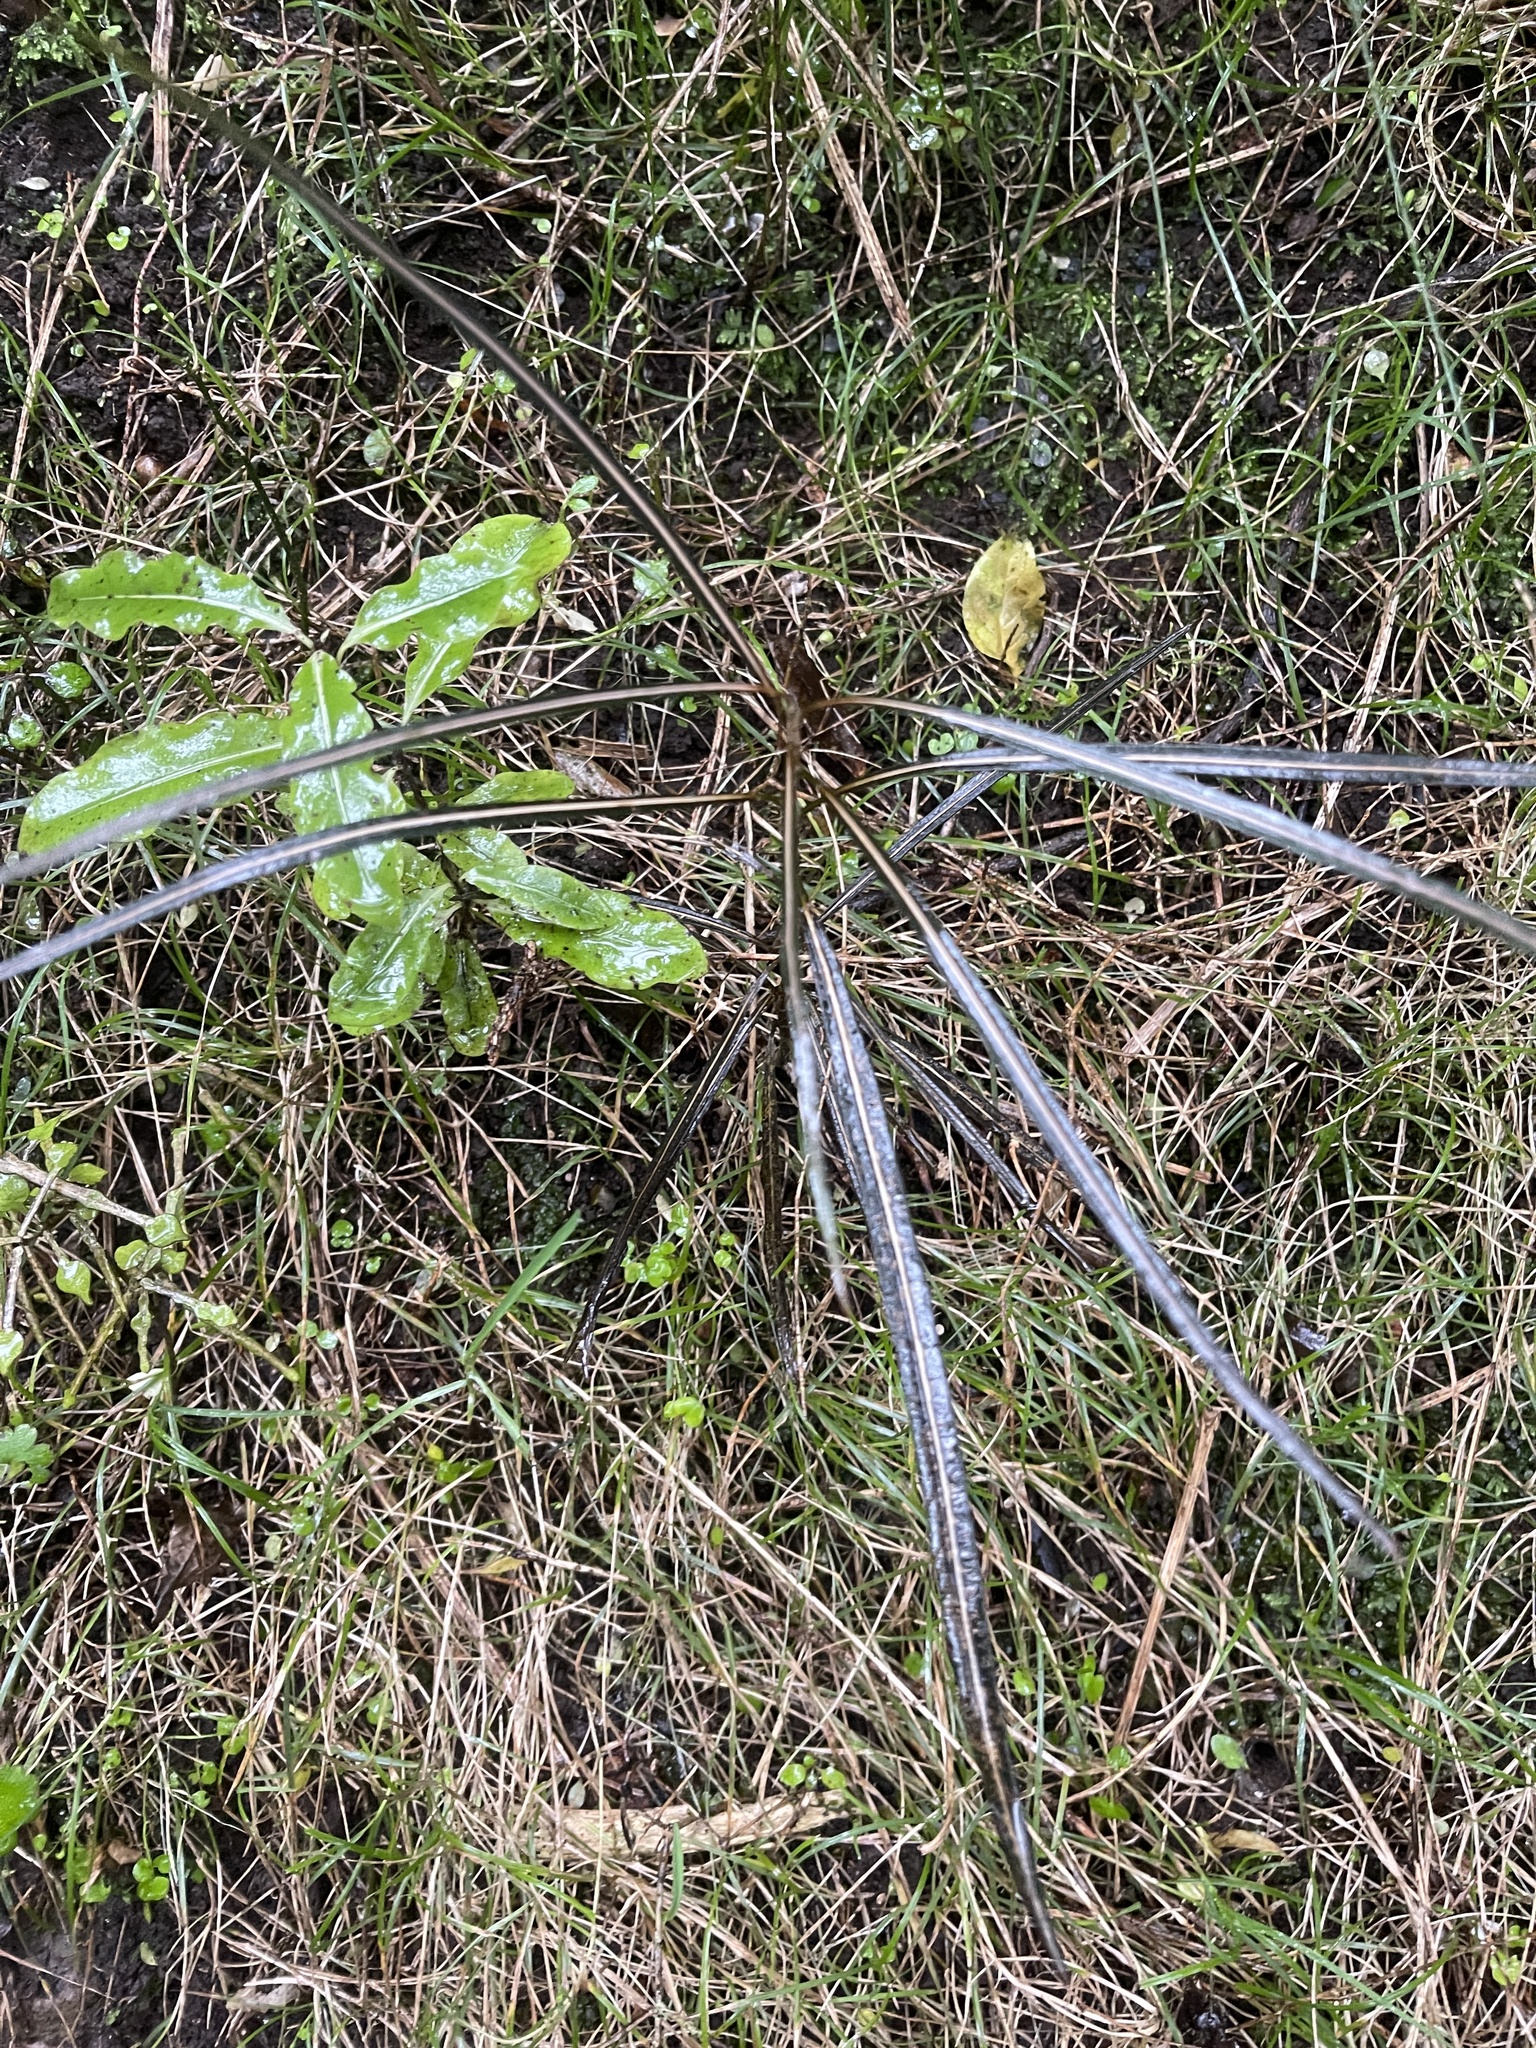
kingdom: Plantae
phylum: Tracheophyta
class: Magnoliopsida
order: Apiales
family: Araliaceae
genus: Pseudopanax
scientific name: Pseudopanax crassifolius
